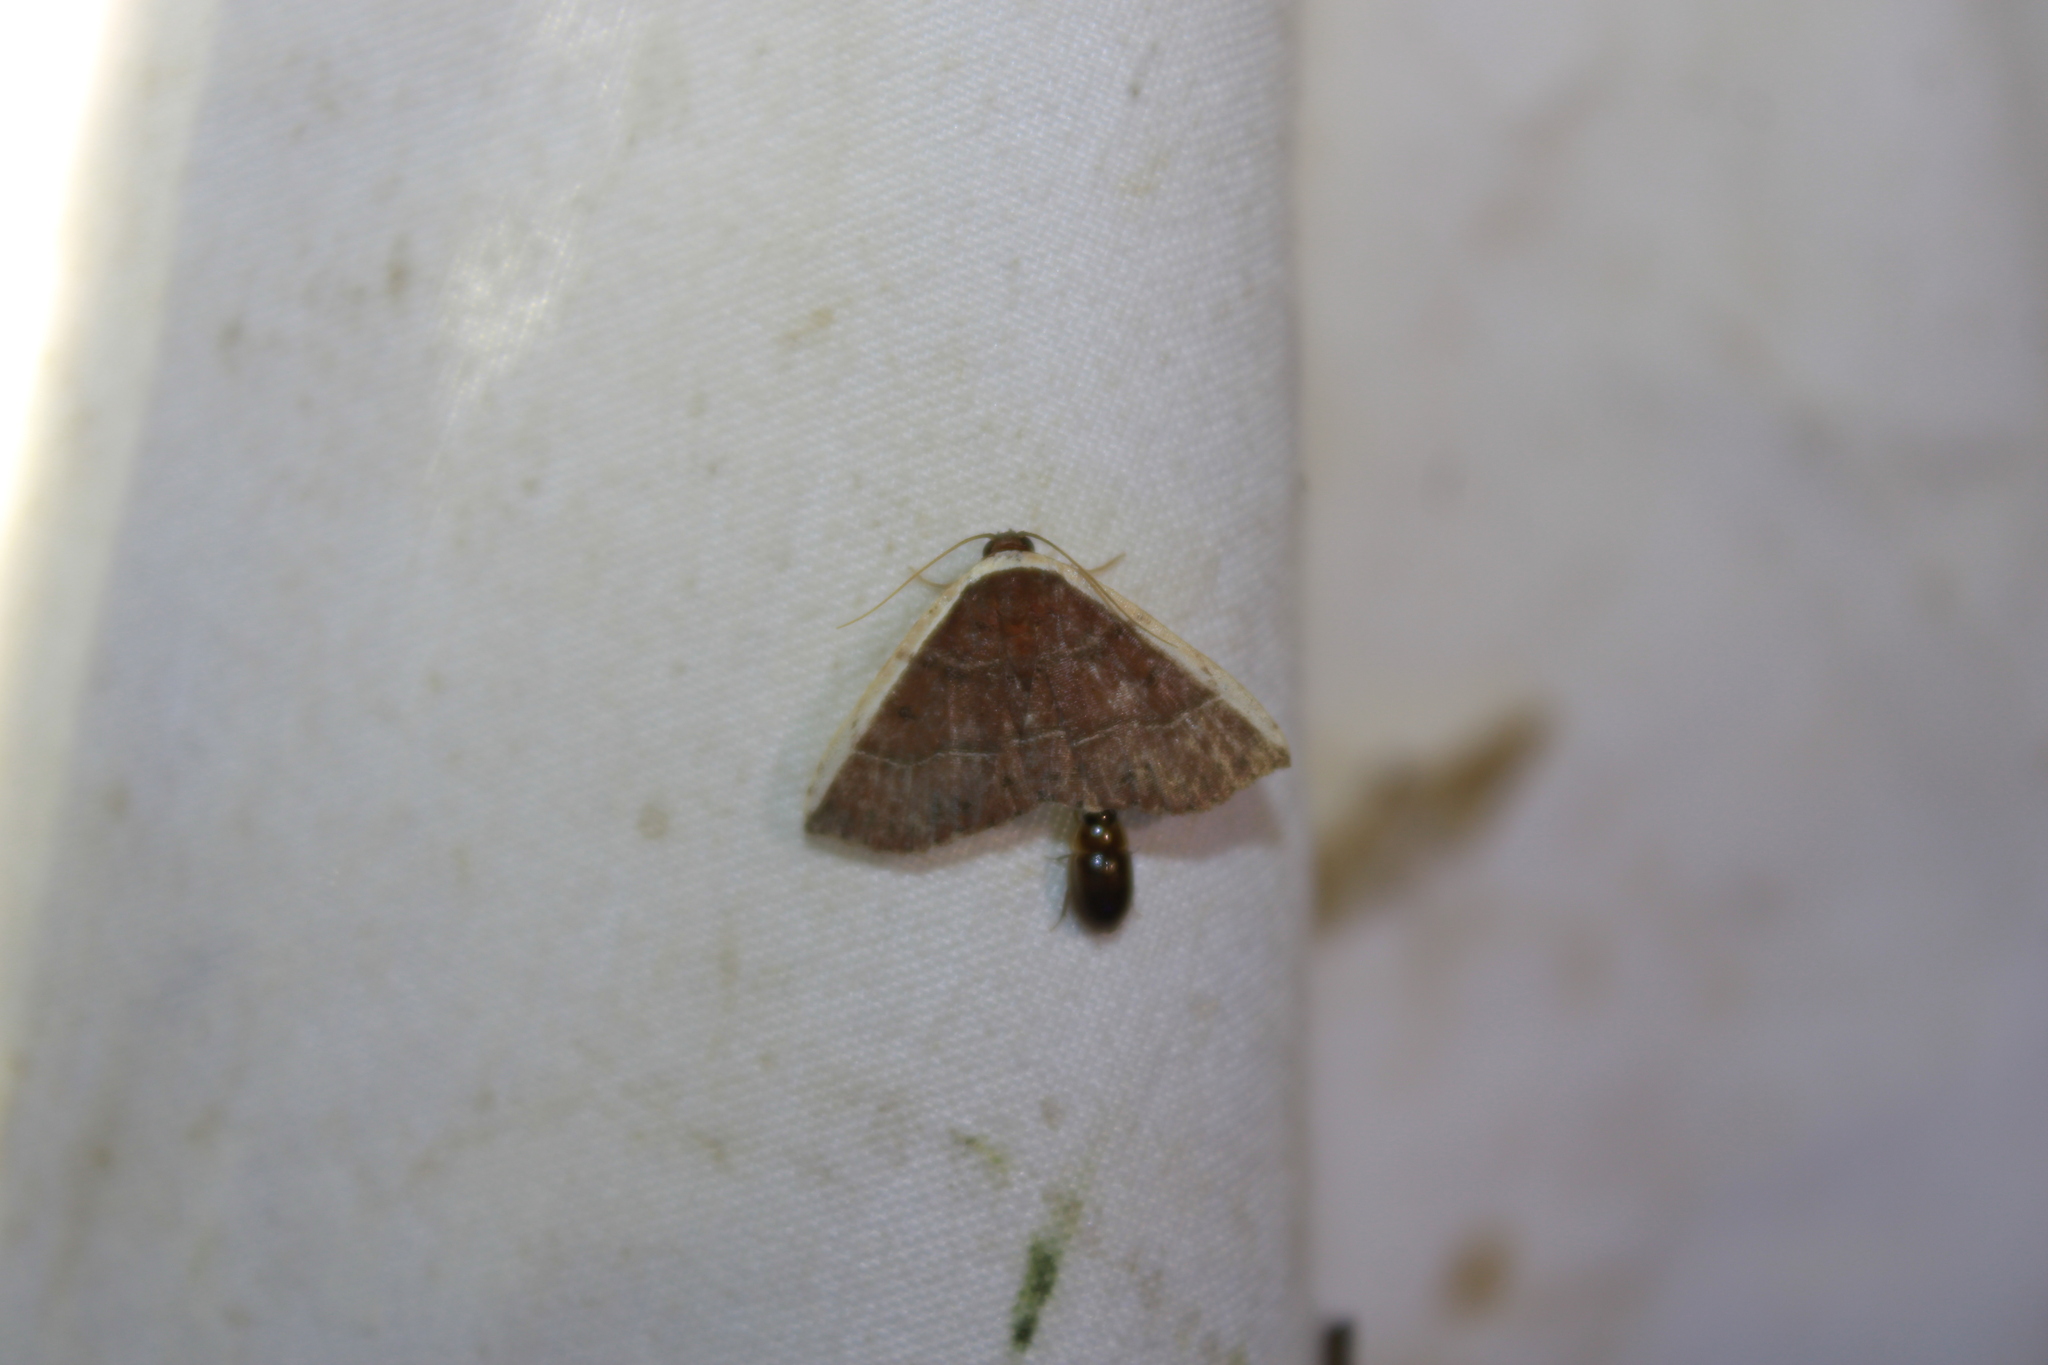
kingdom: Animalia
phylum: Arthropoda
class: Insecta
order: Lepidoptera
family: Noctuidae
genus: Ozarba
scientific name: Ozarba albocostaliata
